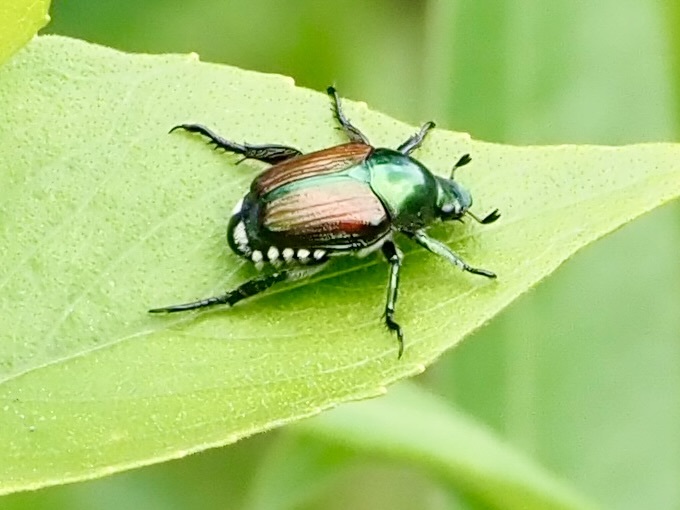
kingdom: Animalia
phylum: Arthropoda
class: Insecta
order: Coleoptera
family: Scarabaeidae
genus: Popillia
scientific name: Popillia japonica
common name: Japanese beetle
